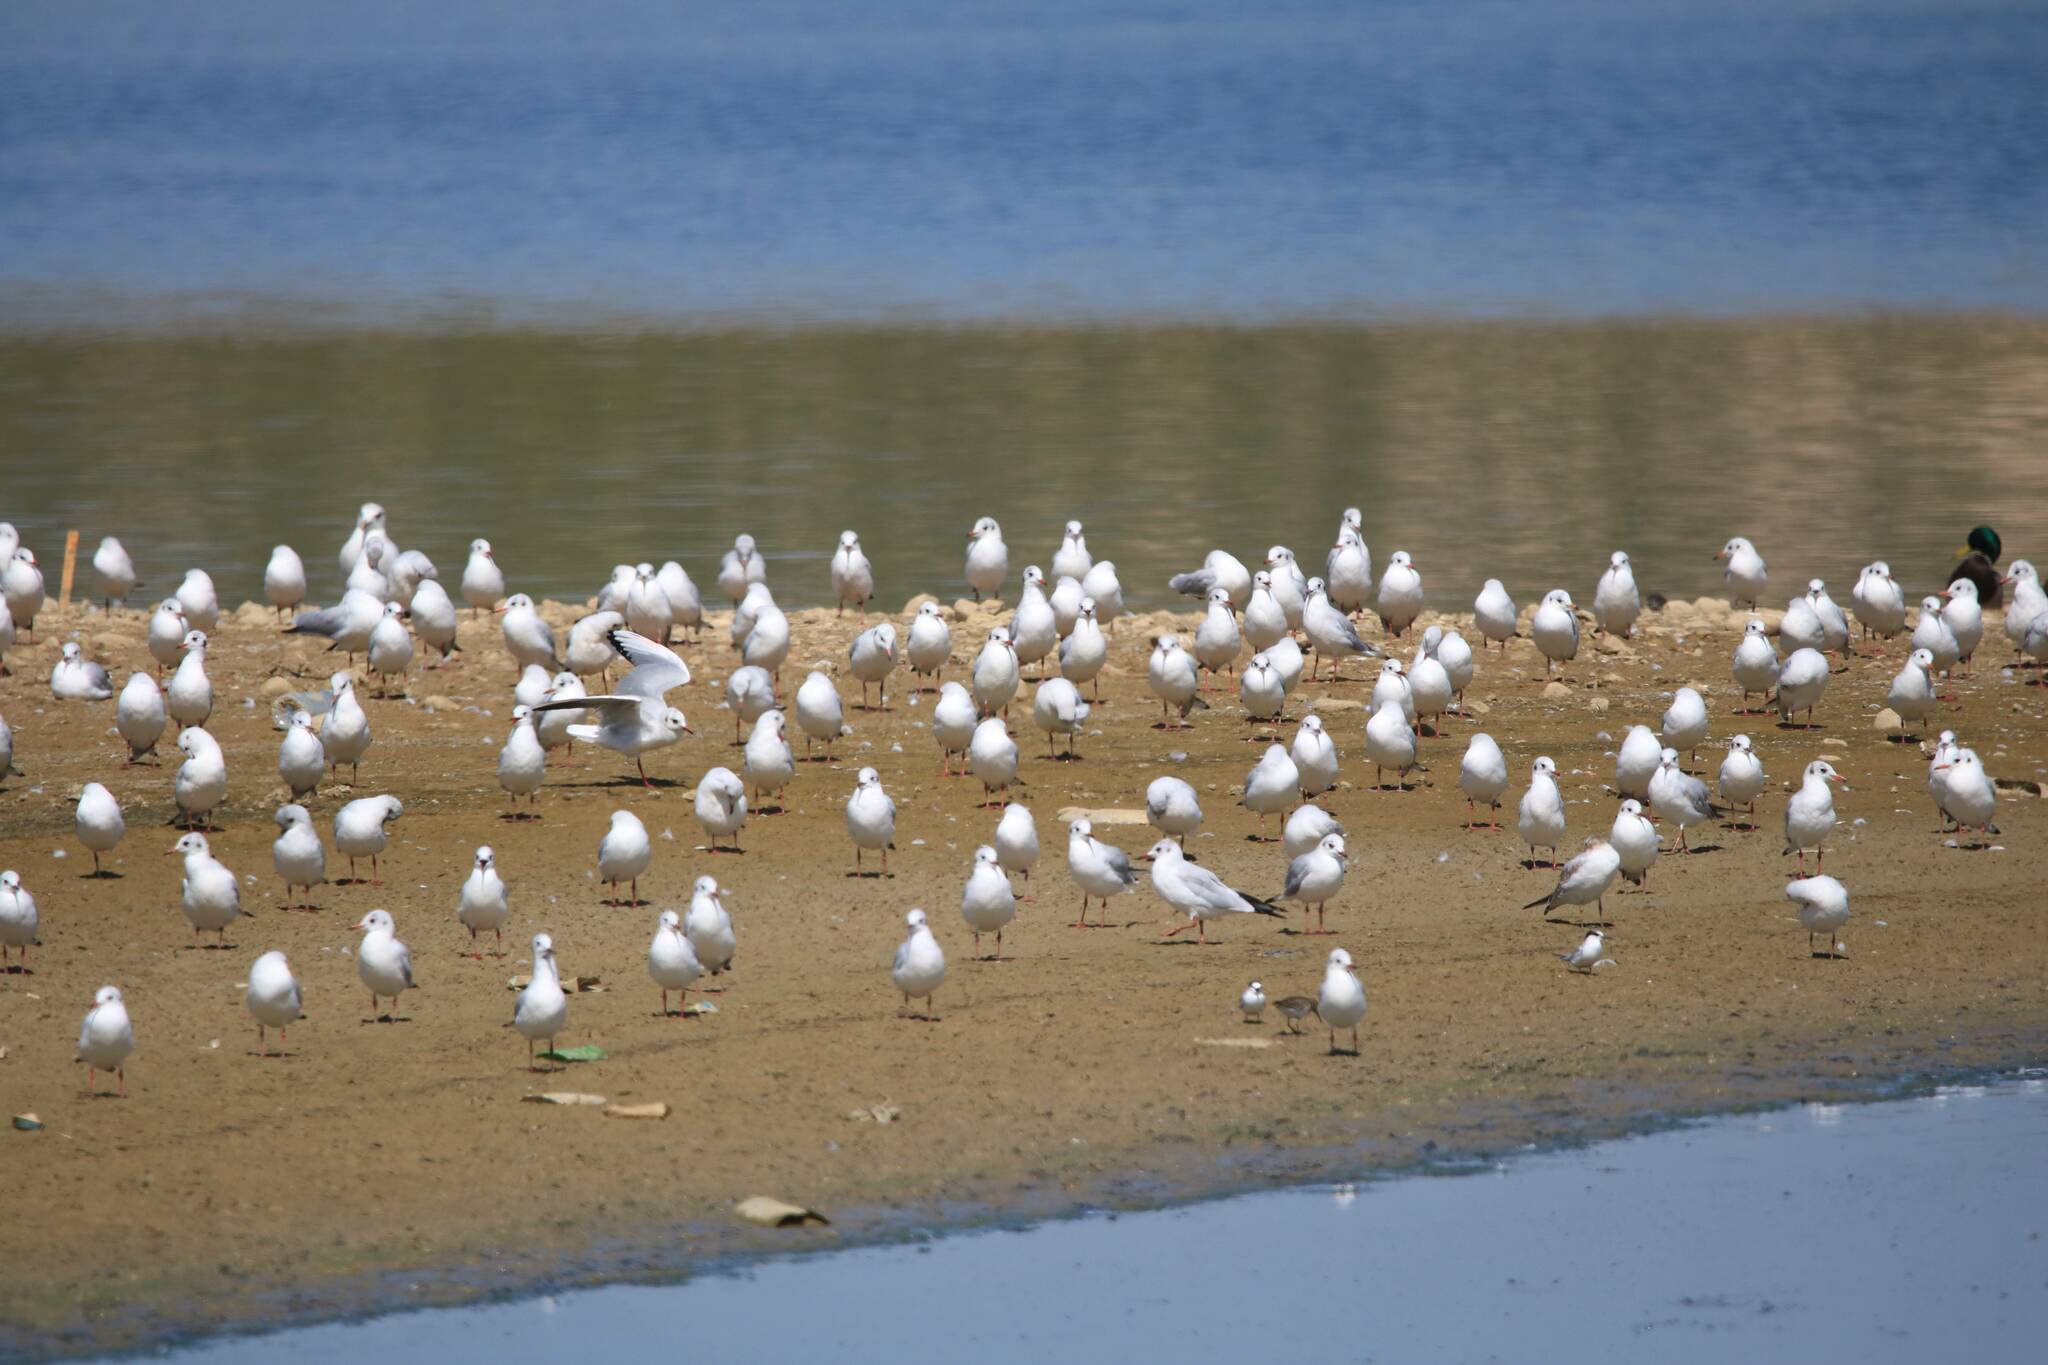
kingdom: Animalia
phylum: Chordata
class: Aves
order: Charadriiformes
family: Laridae
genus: Chroicocephalus
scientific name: Chroicocephalus ridibundus
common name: Black-headed gull
